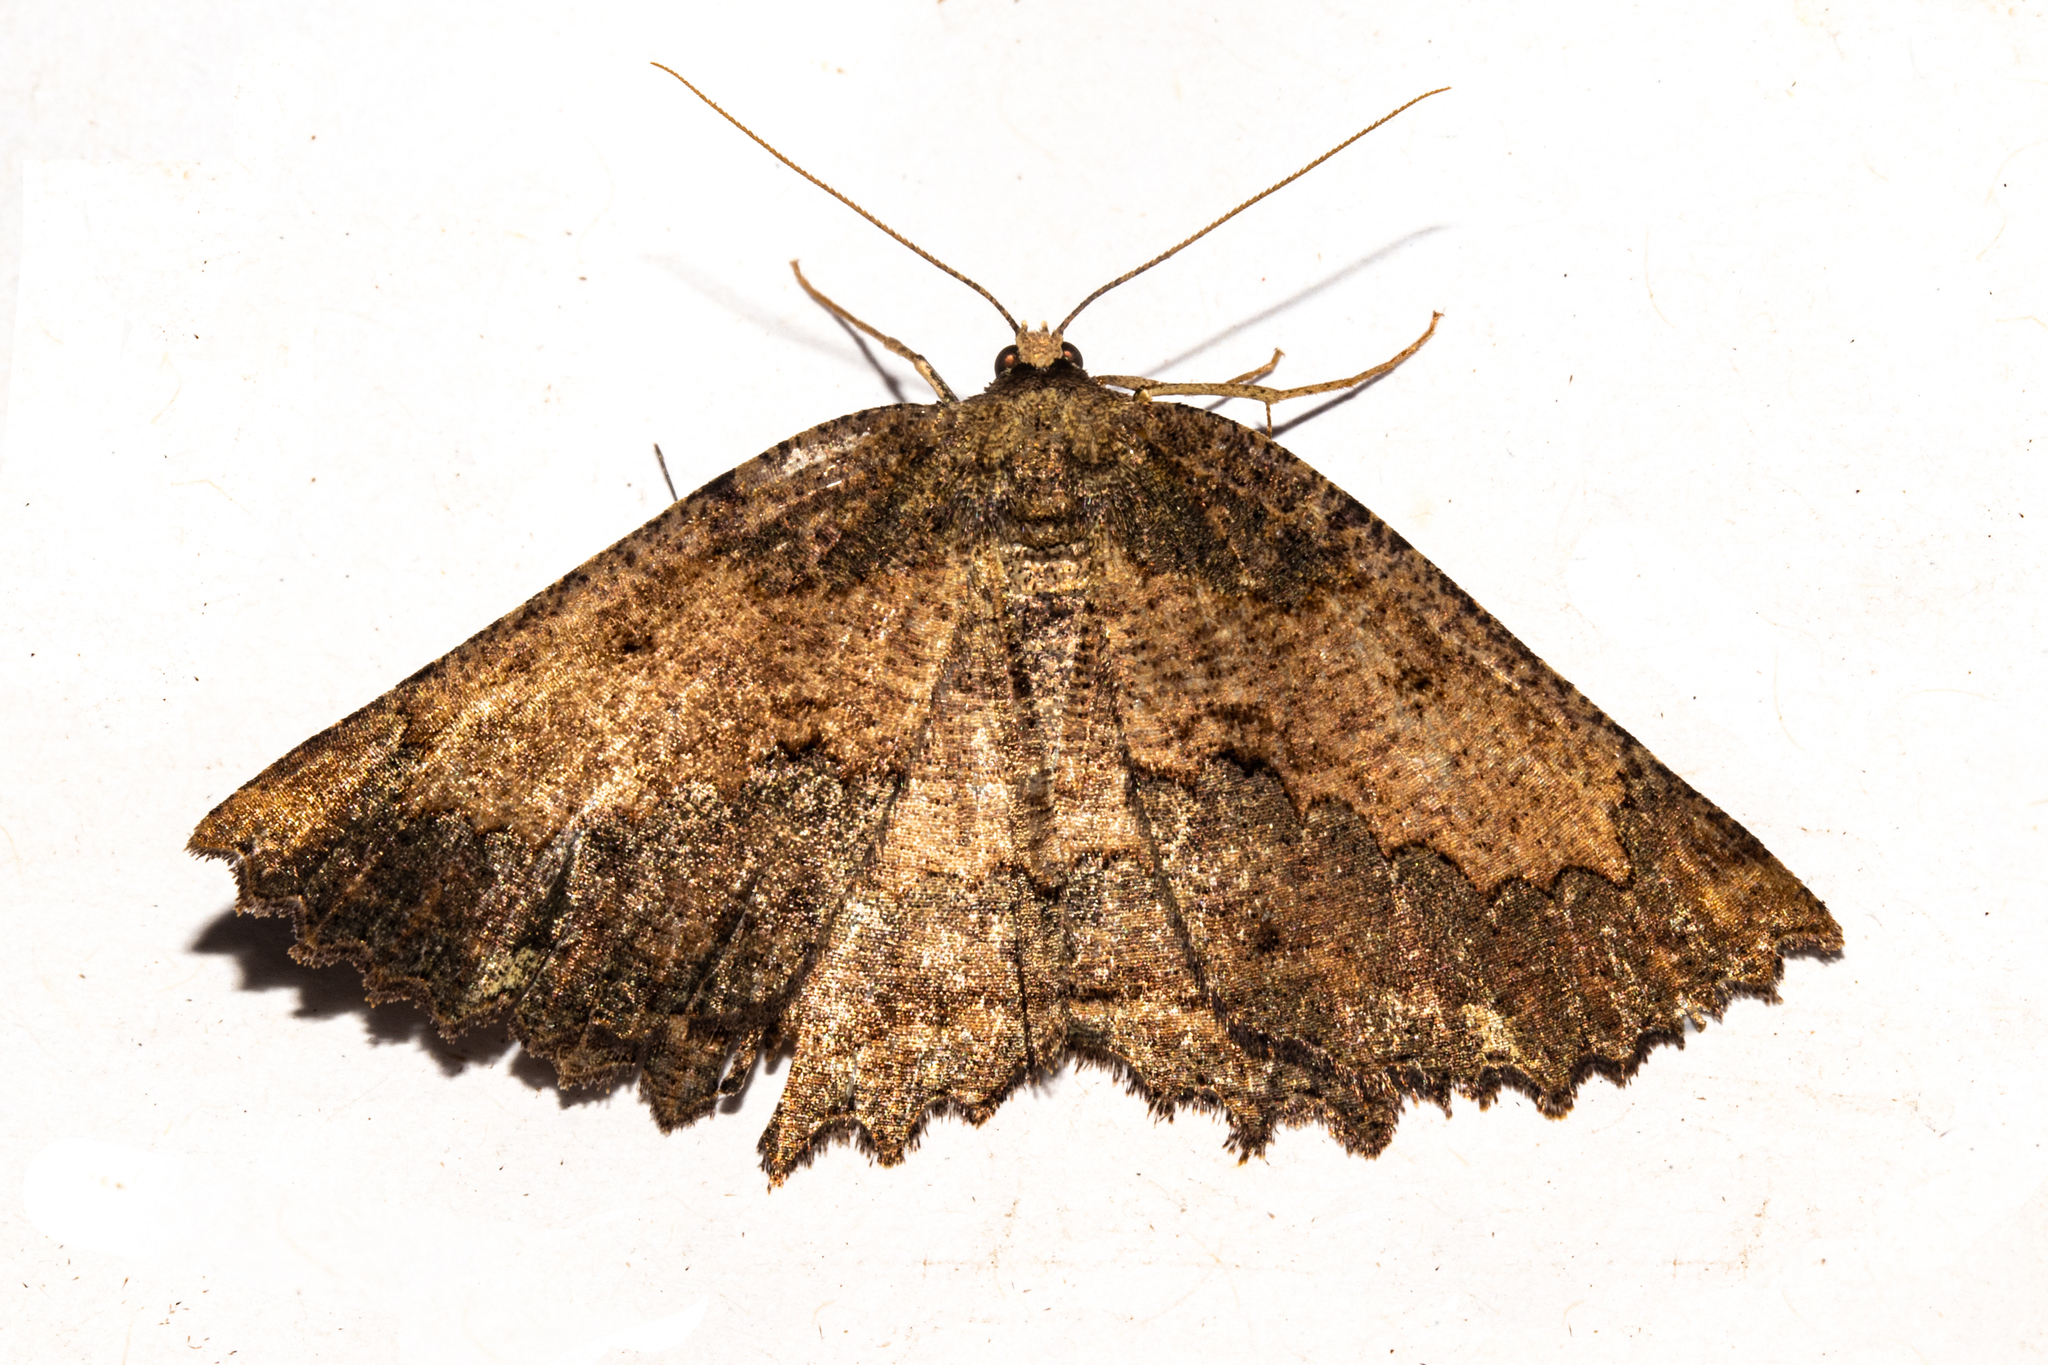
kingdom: Animalia
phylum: Arthropoda
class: Insecta
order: Lepidoptera
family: Geometridae
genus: Gellonia
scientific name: Gellonia dejectaria
